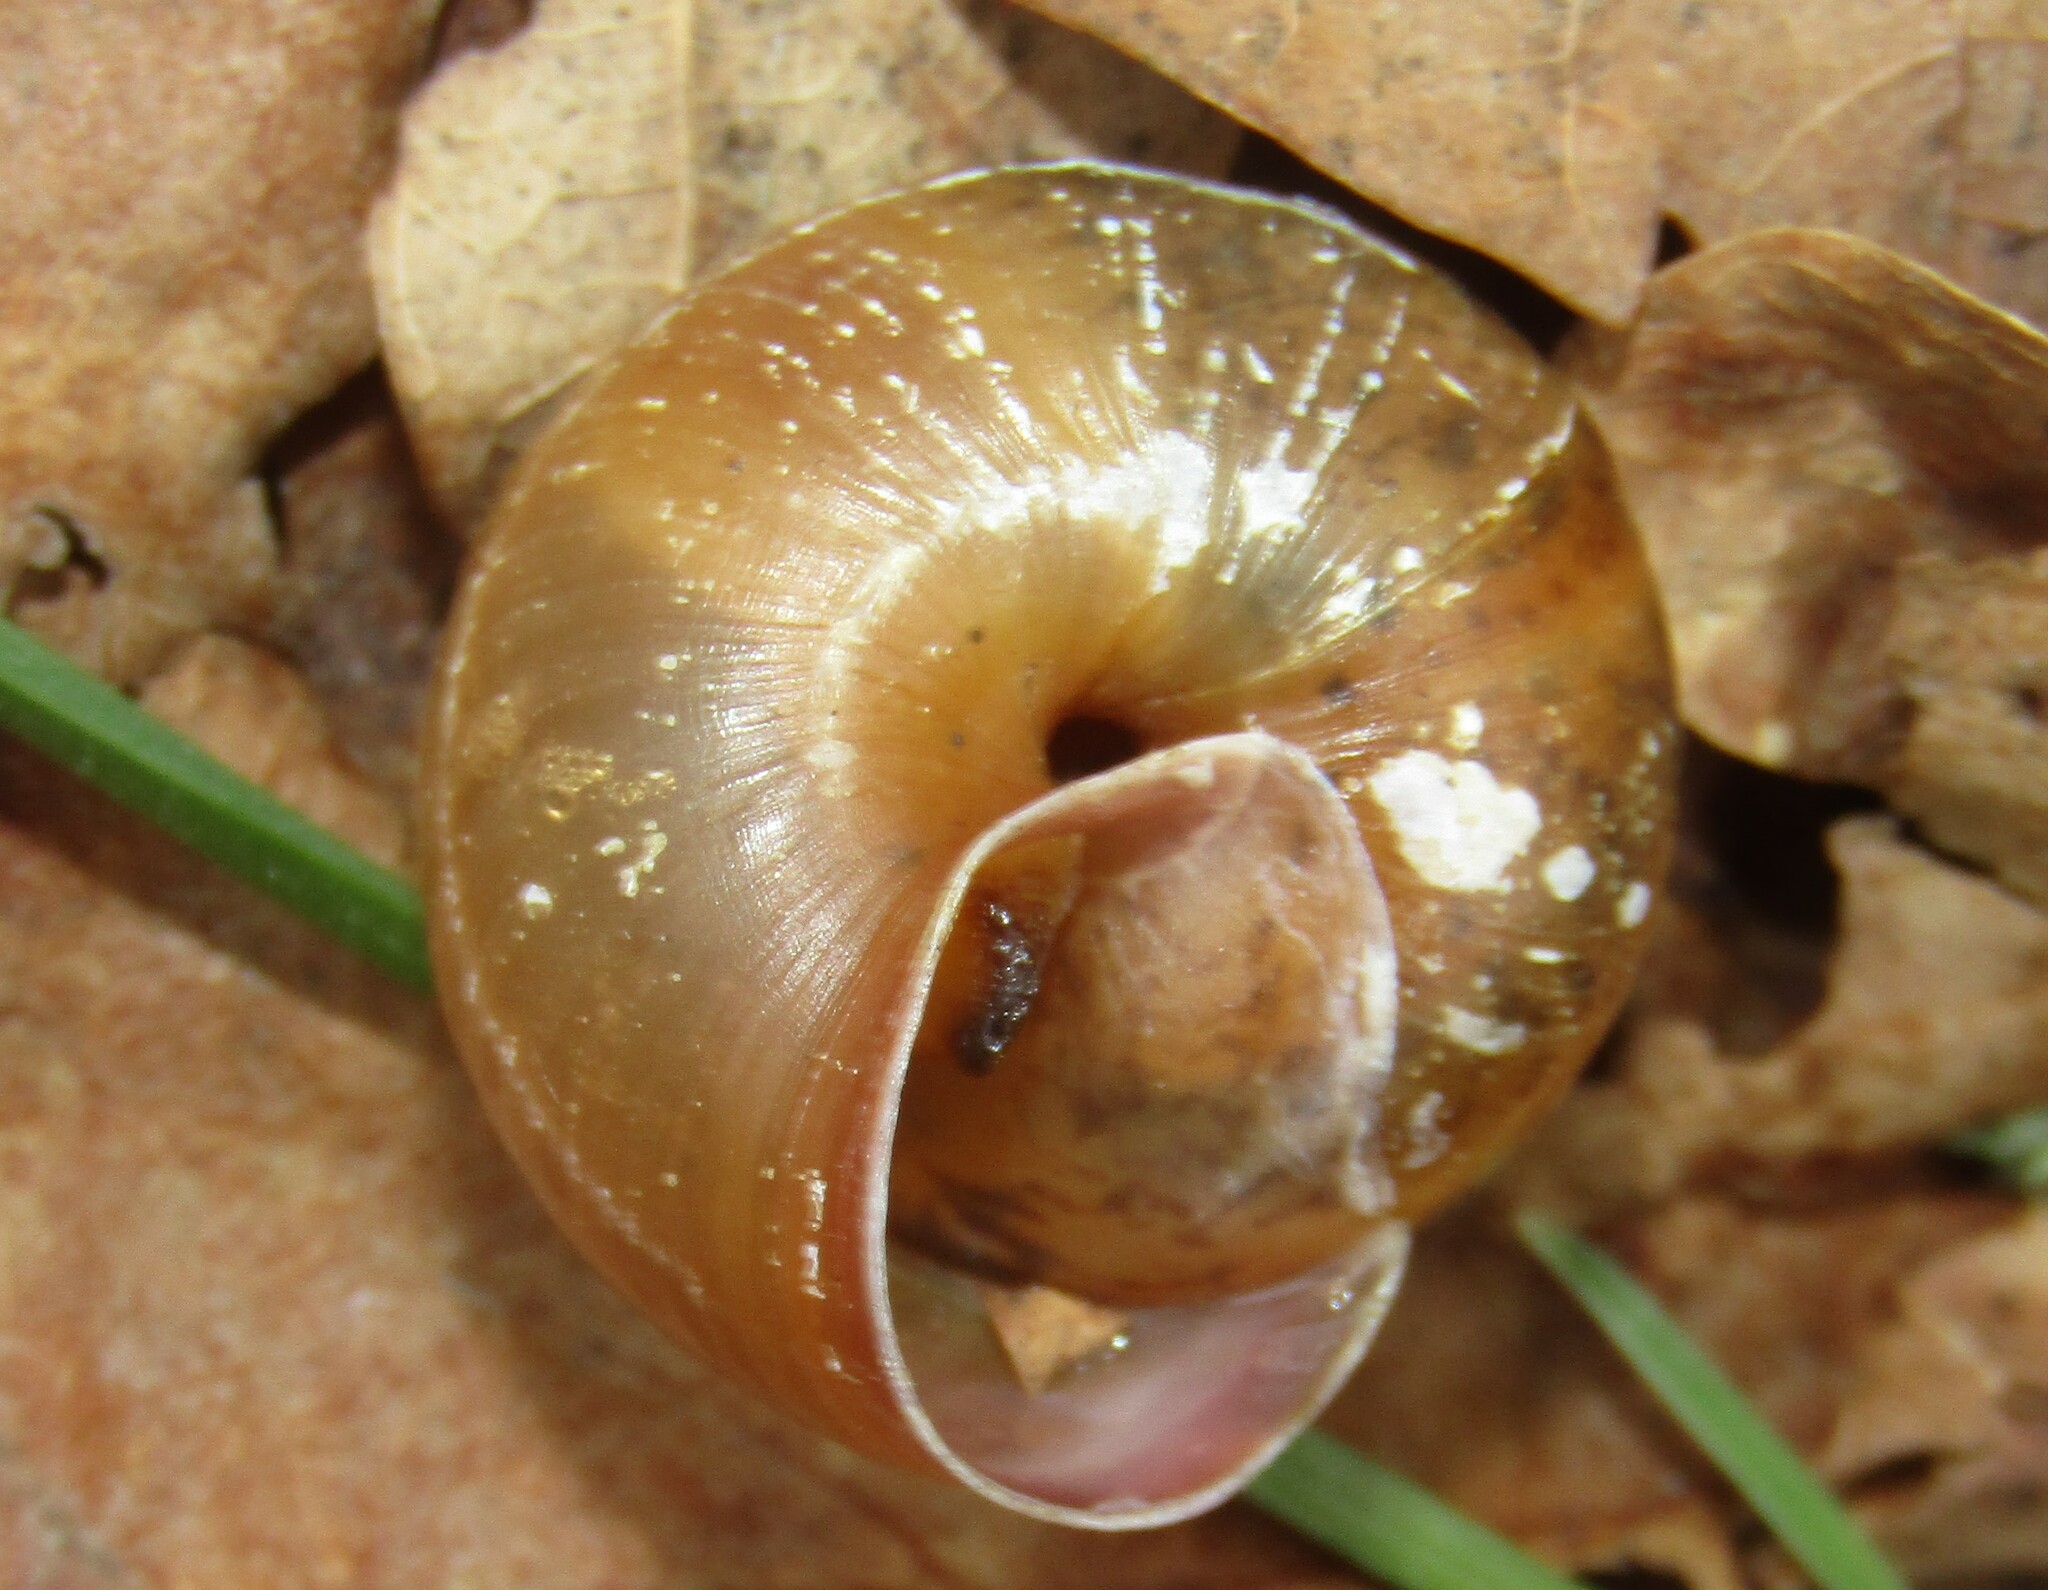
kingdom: Animalia
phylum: Mollusca
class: Gastropoda
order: Stylommatophora
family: Camaenidae
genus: Fruticicola
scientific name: Fruticicola fruticum
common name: Bush snail
